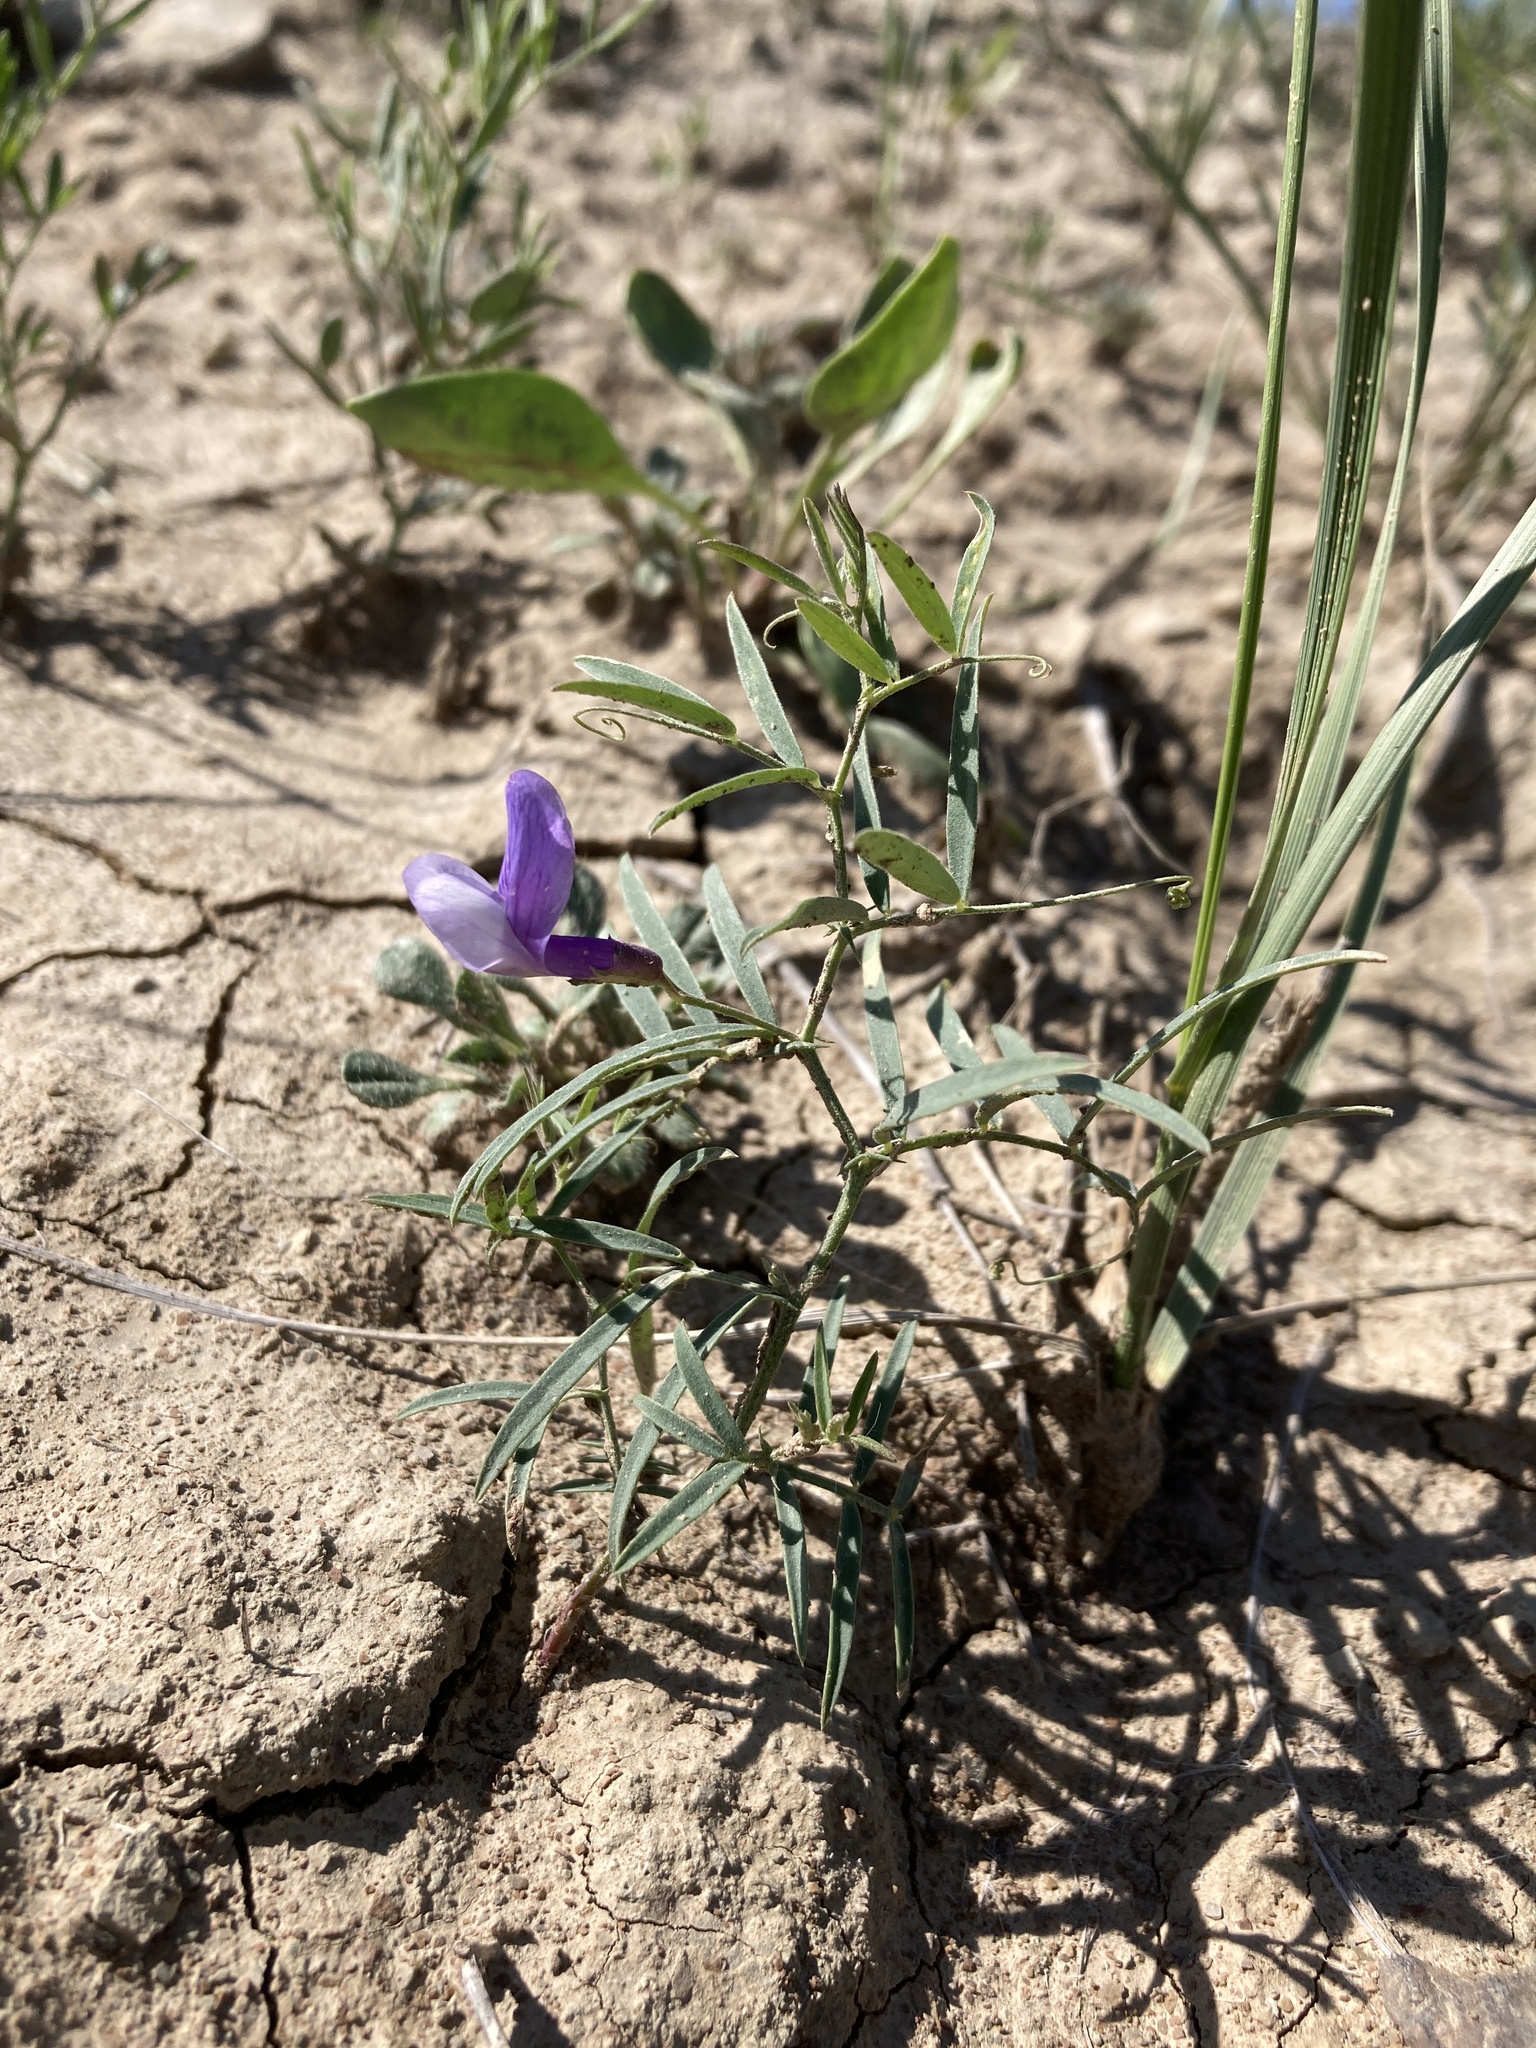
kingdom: Plantae
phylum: Tracheophyta
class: Magnoliopsida
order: Fabales
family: Fabaceae
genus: Vicia
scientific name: Vicia americana
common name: American vetch
